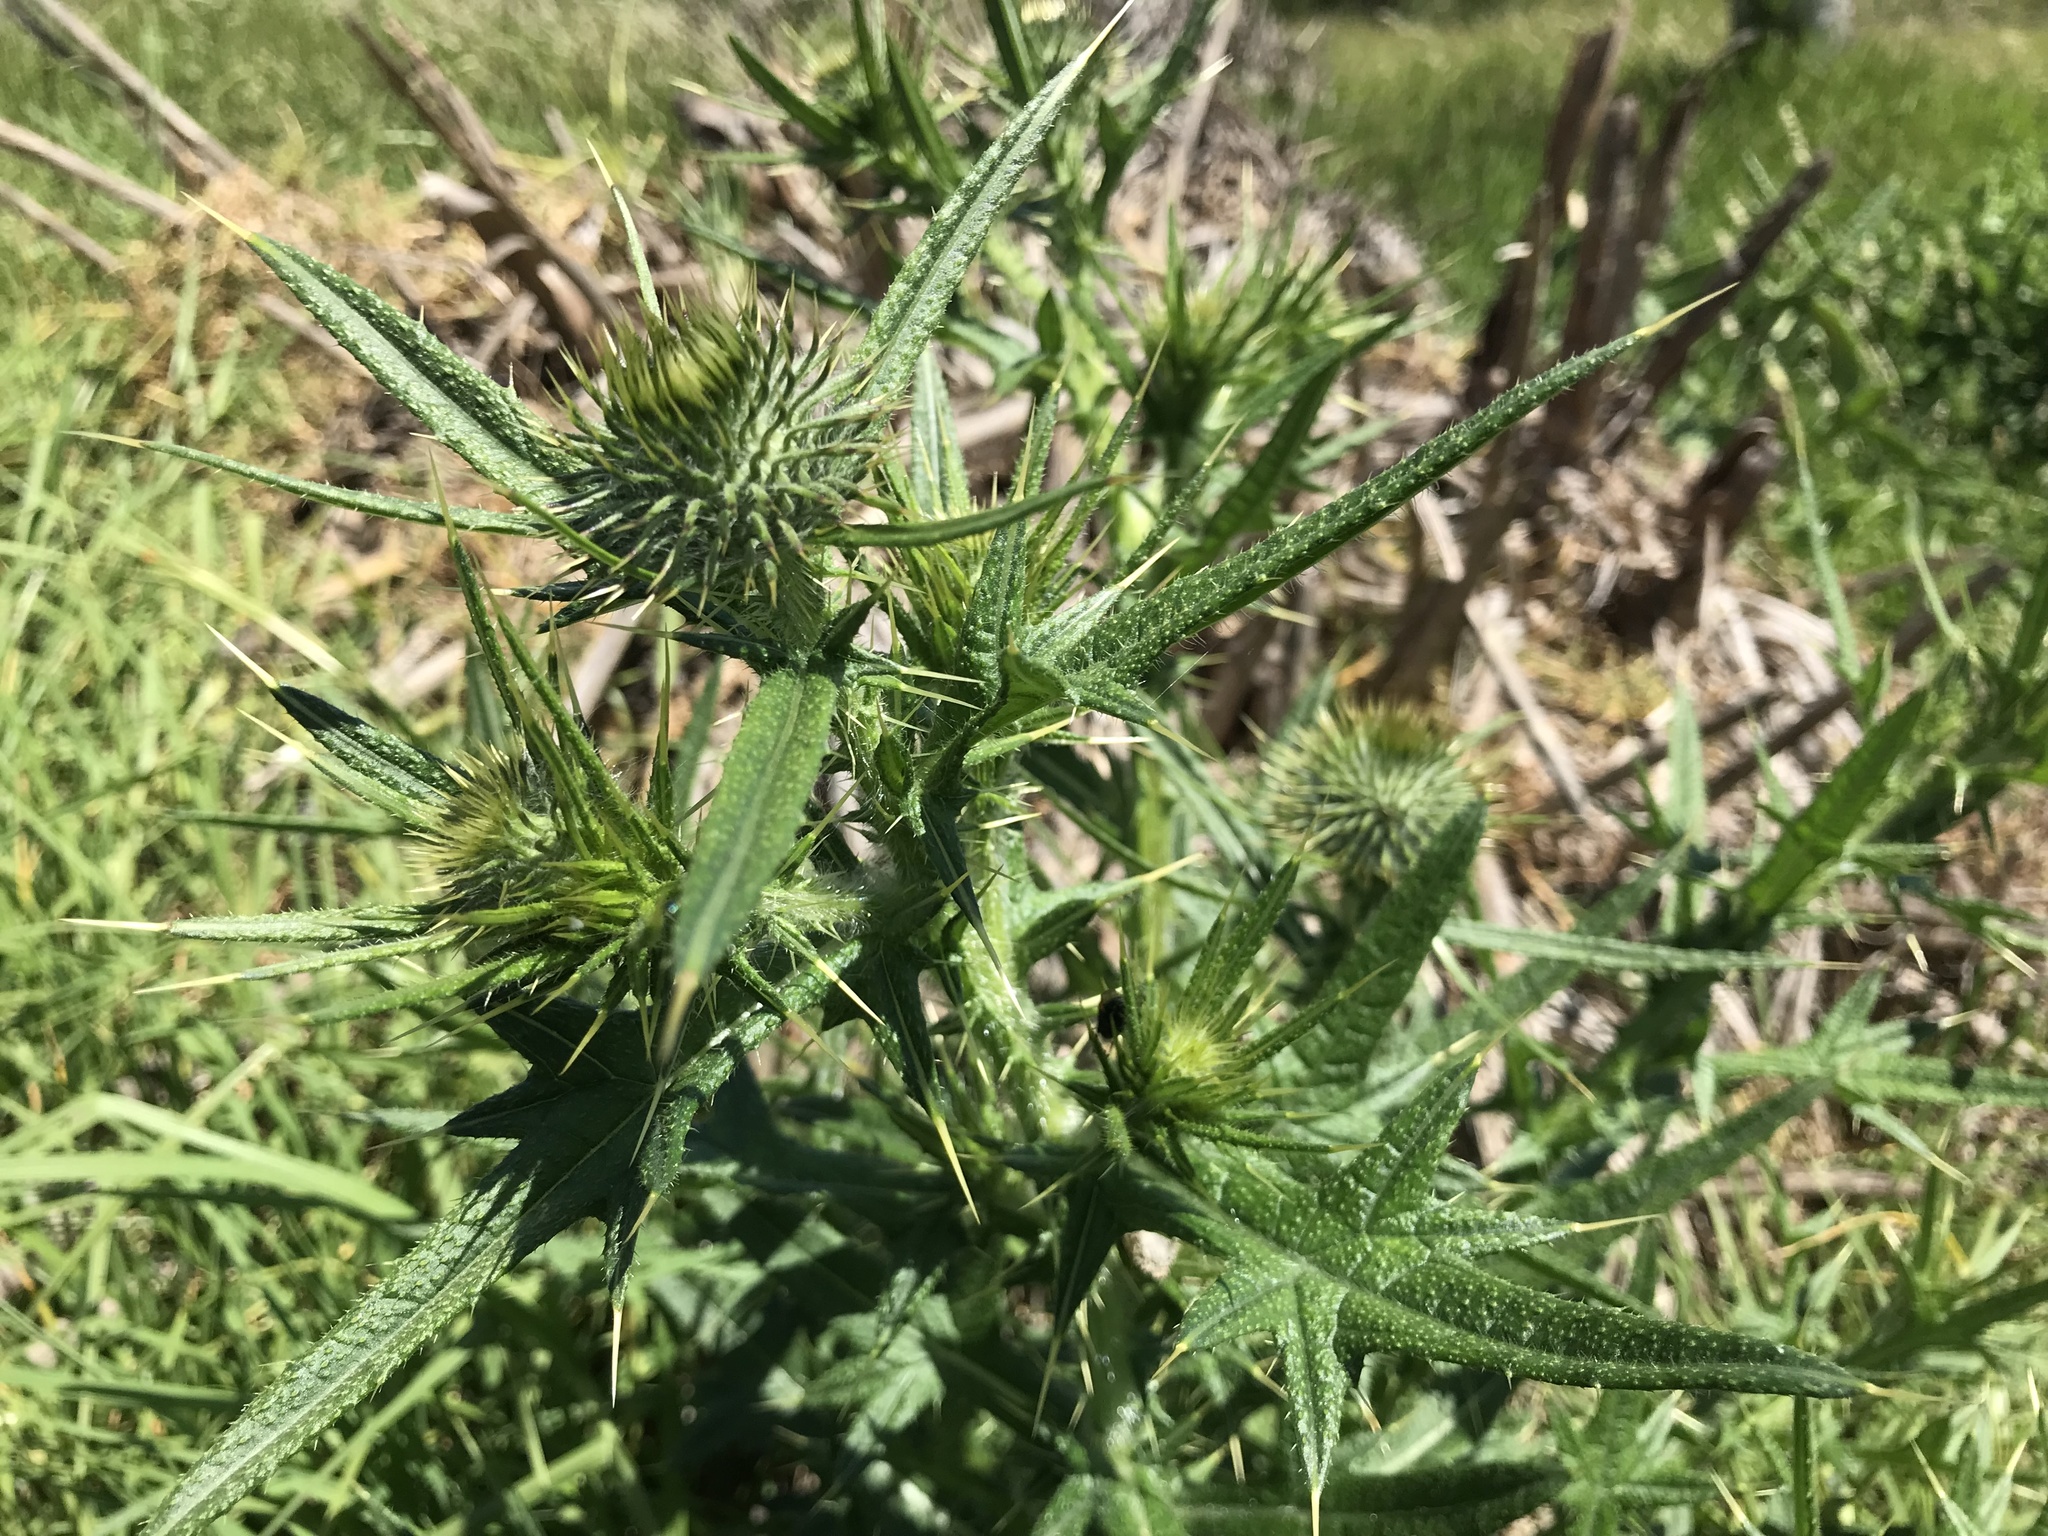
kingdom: Plantae
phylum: Tracheophyta
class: Magnoliopsida
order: Asterales
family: Asteraceae
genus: Cirsium
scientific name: Cirsium vulgare
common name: Bull thistle
